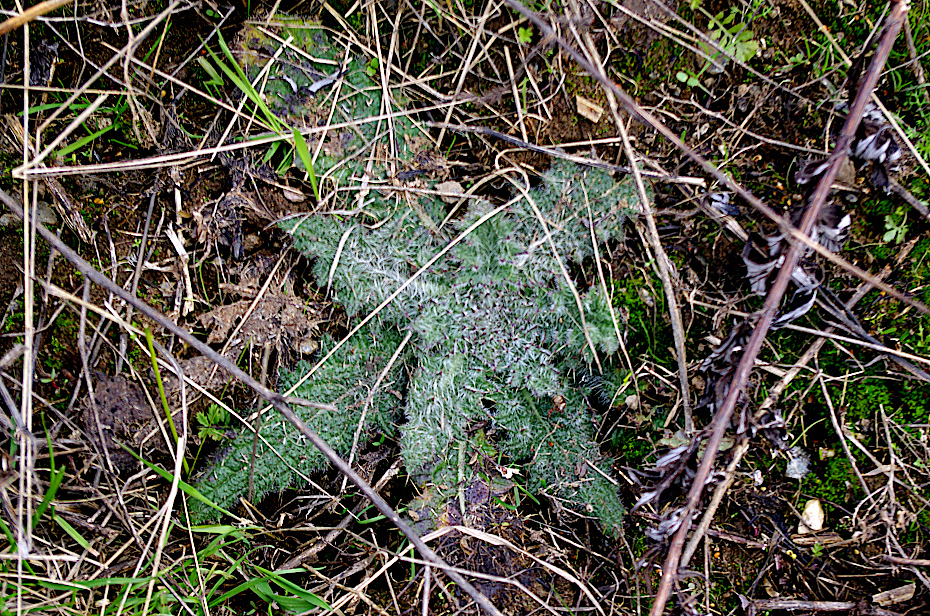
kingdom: Plantae
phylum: Tracheophyta
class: Magnoliopsida
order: Asterales
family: Asteraceae
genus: Cirsium
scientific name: Cirsium vulgare
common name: Bull thistle
